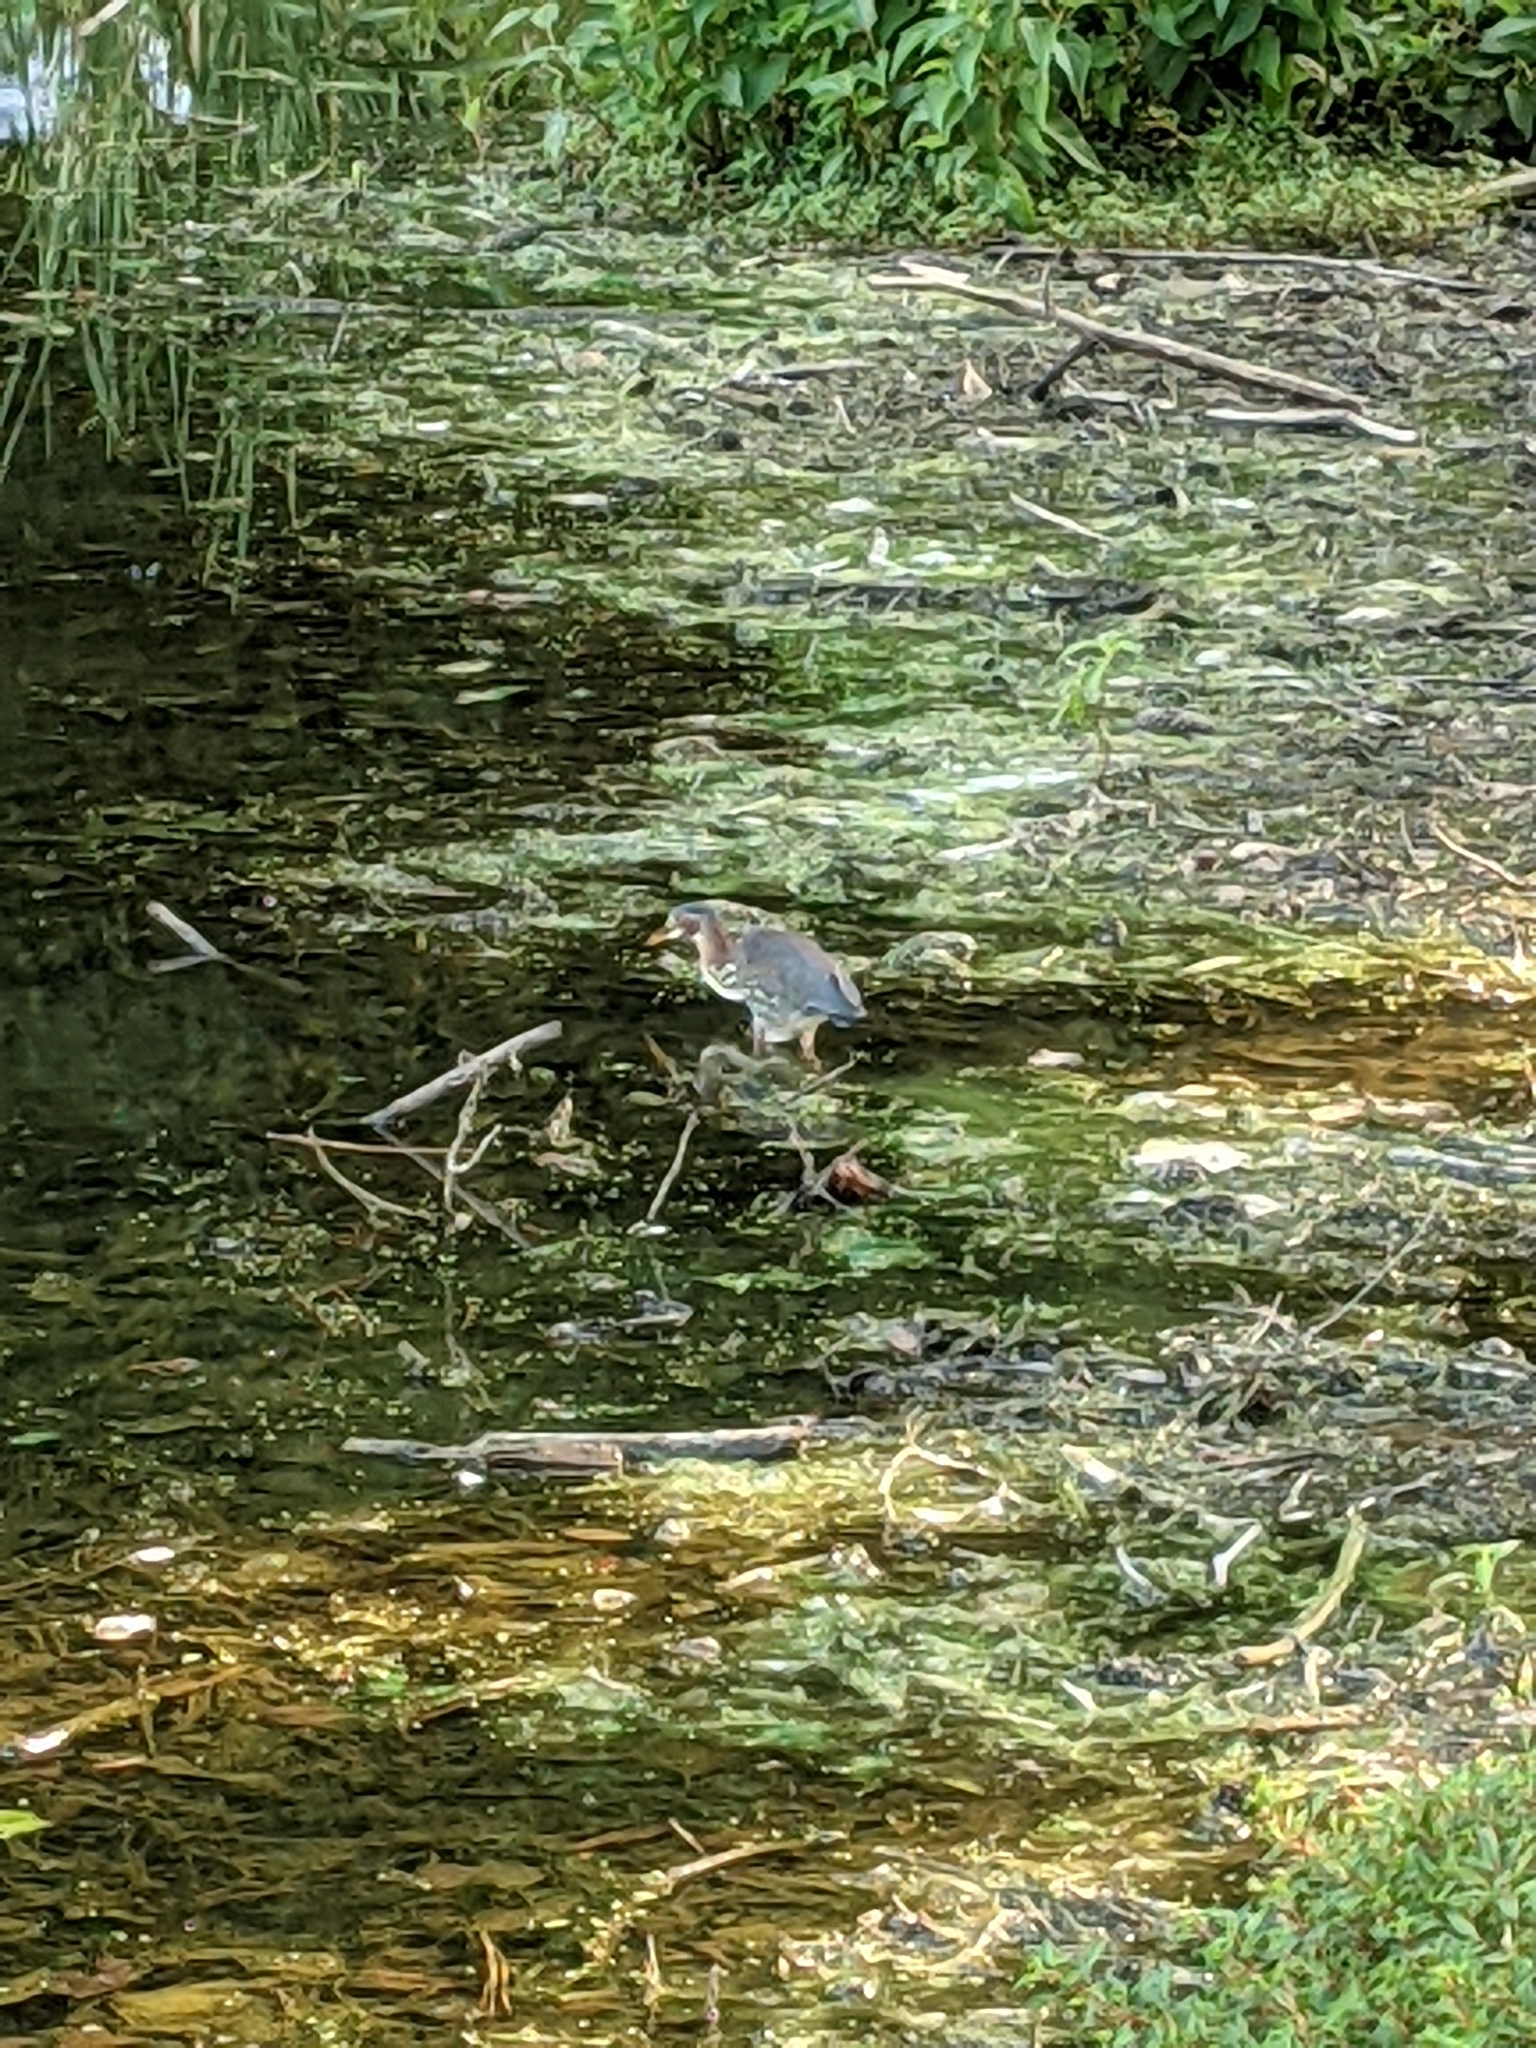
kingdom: Animalia
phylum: Chordata
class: Aves
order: Pelecaniformes
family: Ardeidae
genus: Butorides
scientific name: Butorides virescens
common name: Green heron
